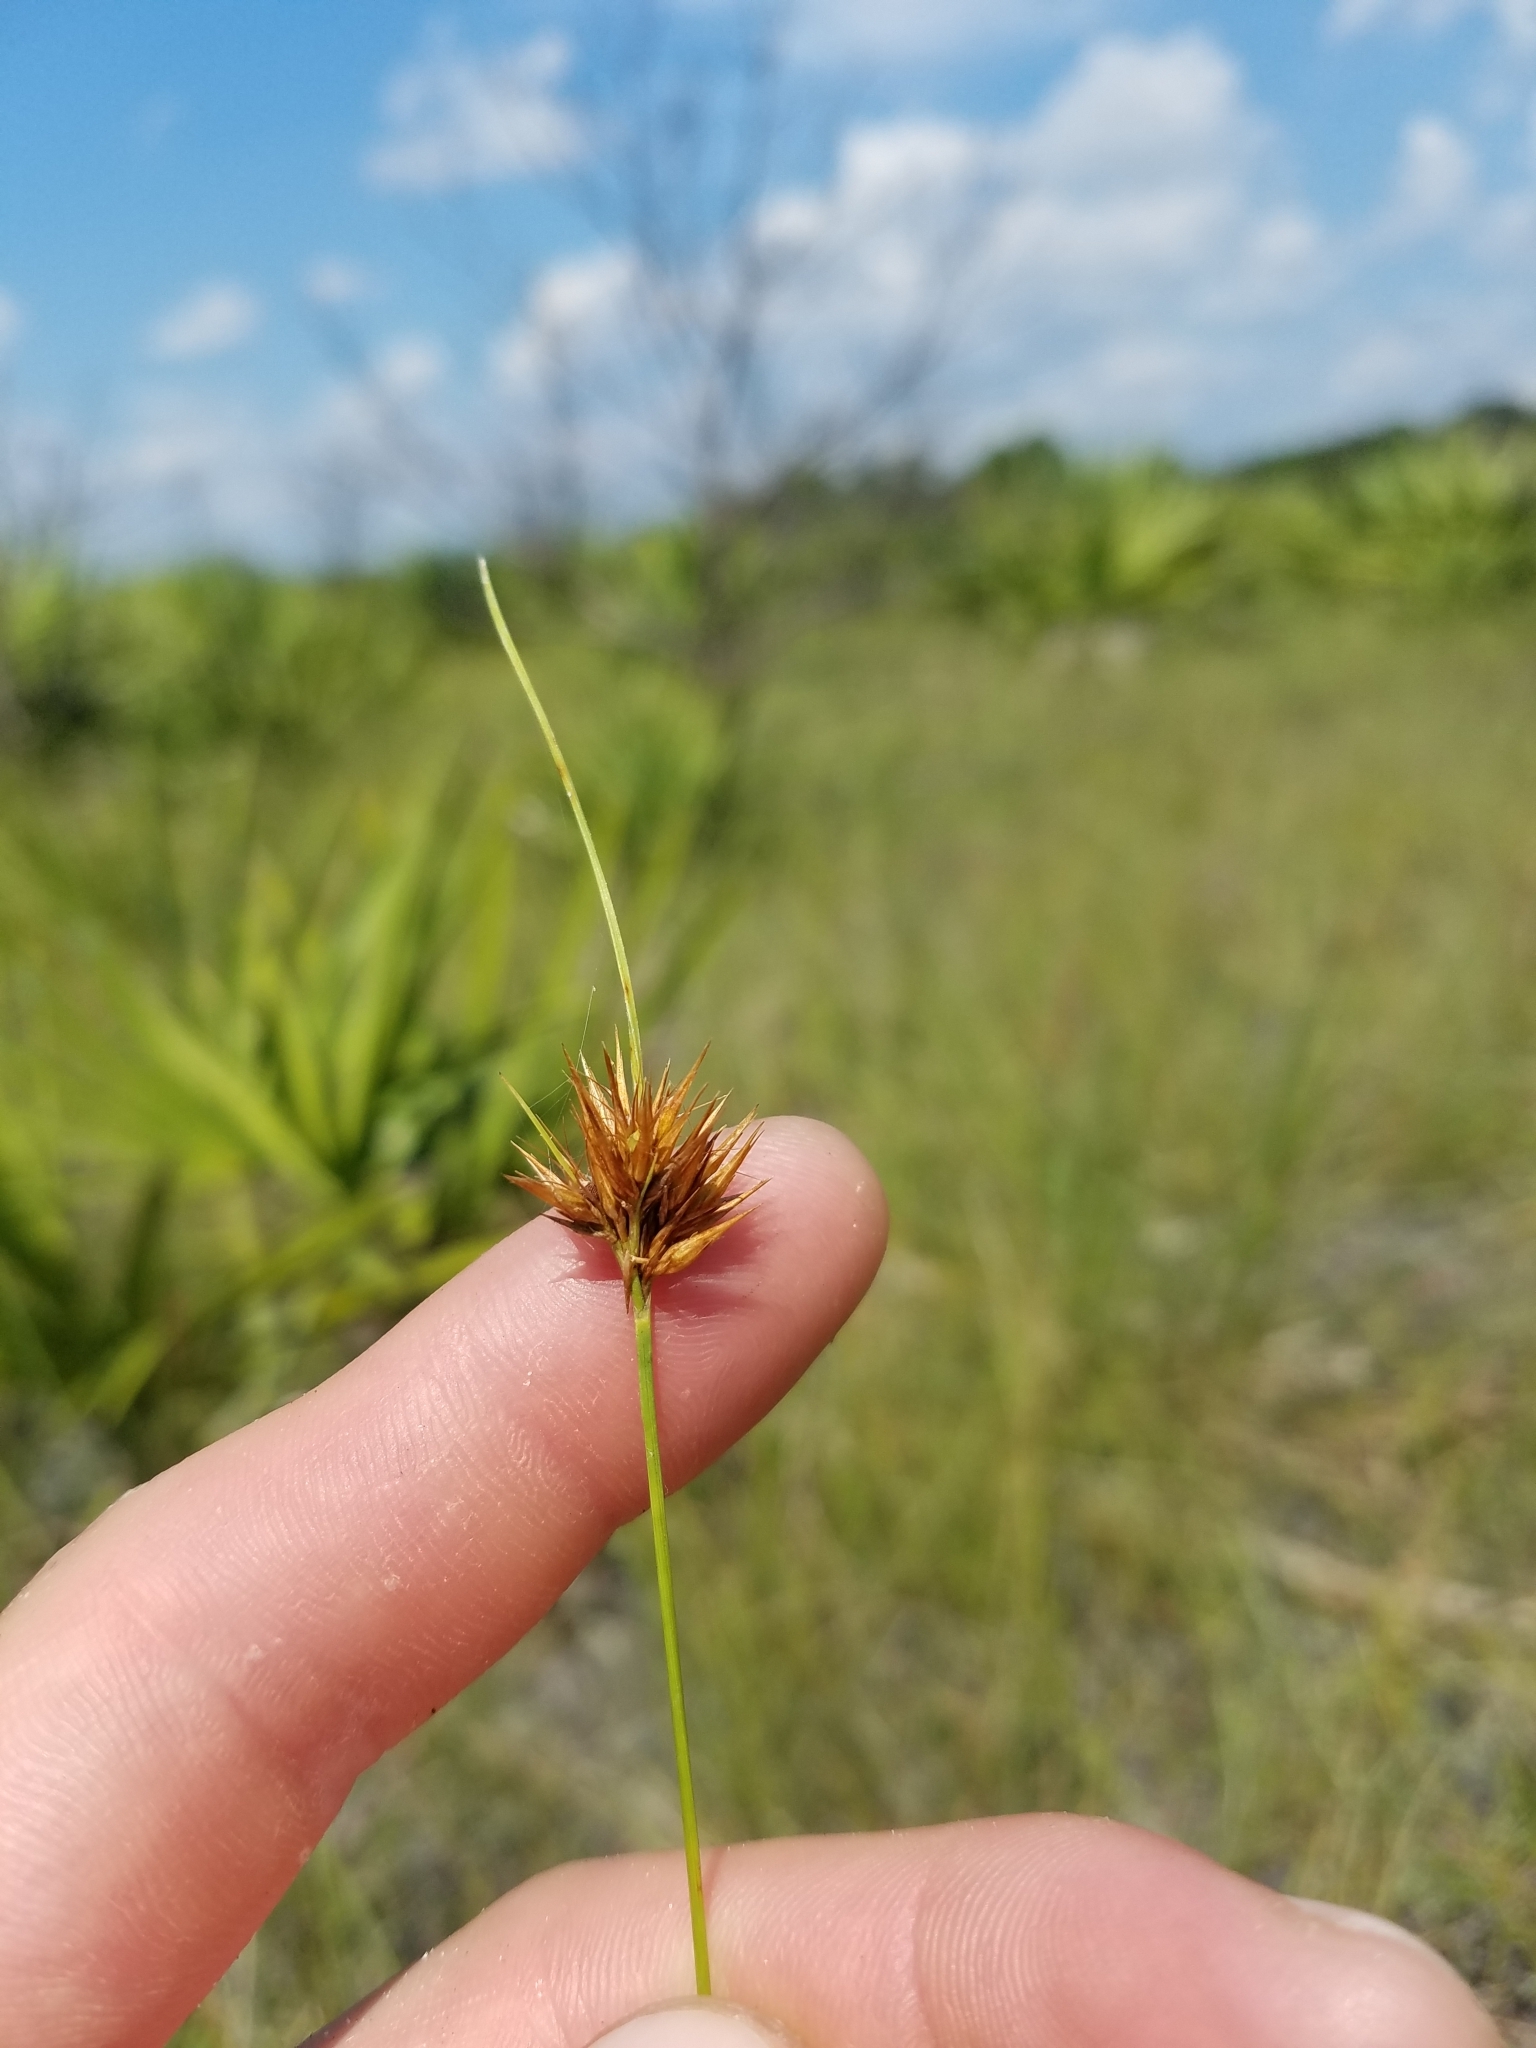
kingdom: Plantae
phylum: Tracheophyta
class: Liliopsida
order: Poales
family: Cyperaceae
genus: Rhynchospora
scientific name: Rhynchospora megaplumosa
